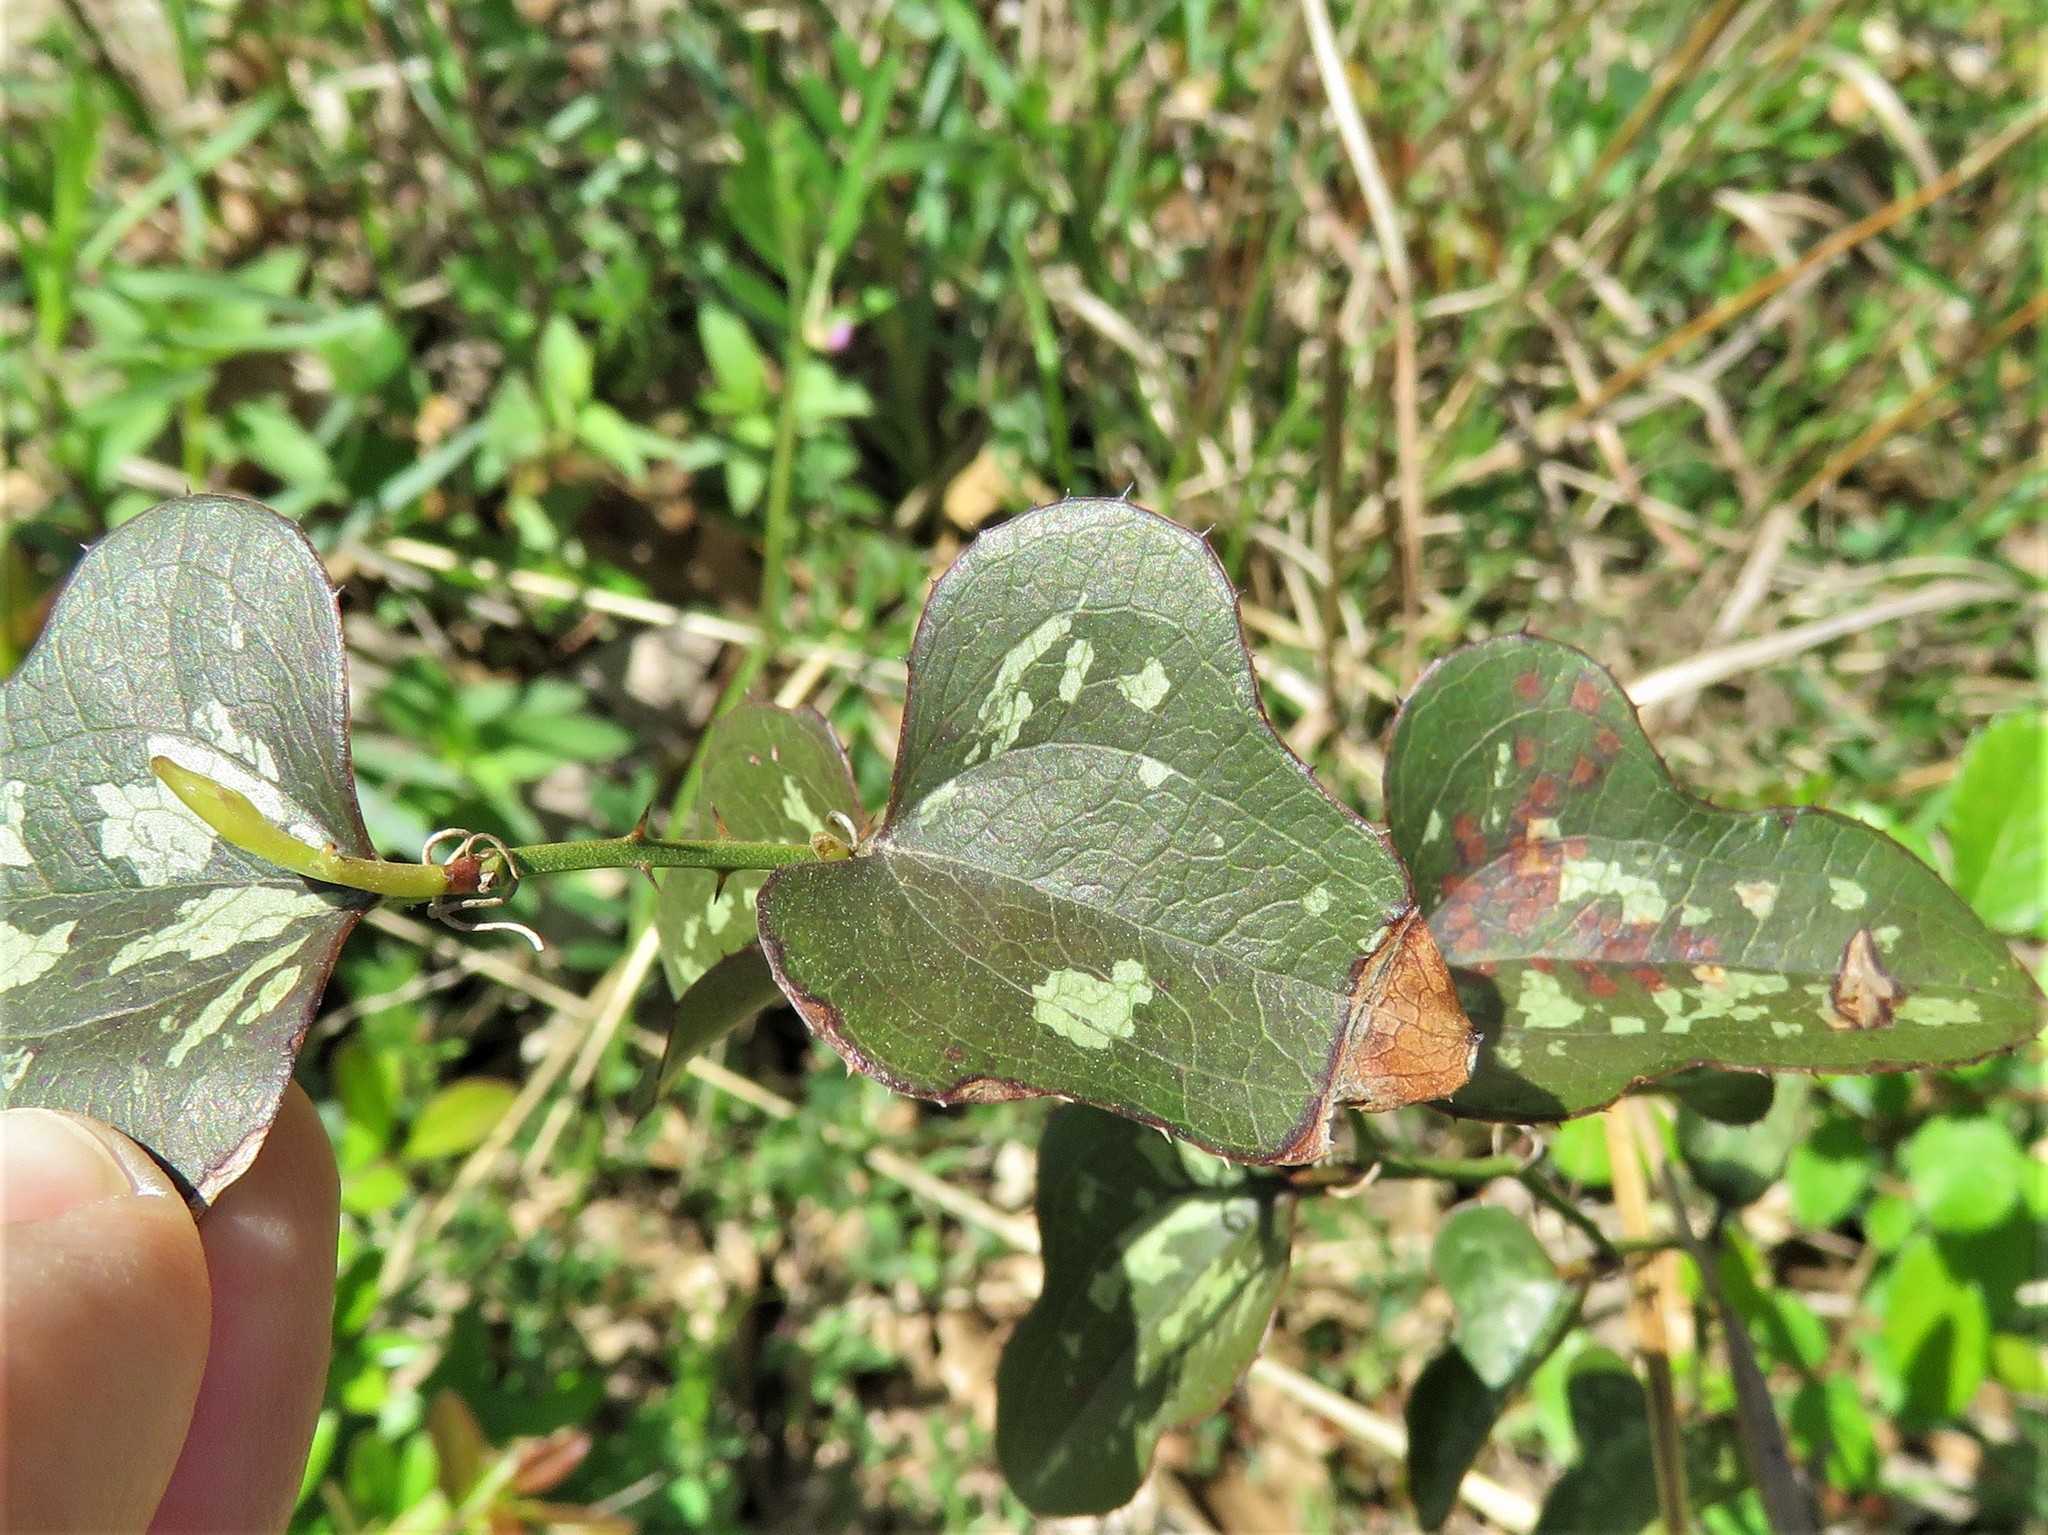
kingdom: Plantae
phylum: Tracheophyta
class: Liliopsida
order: Liliales
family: Smilacaceae
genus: Smilax
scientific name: Smilax bona-nox
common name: Catbrier
